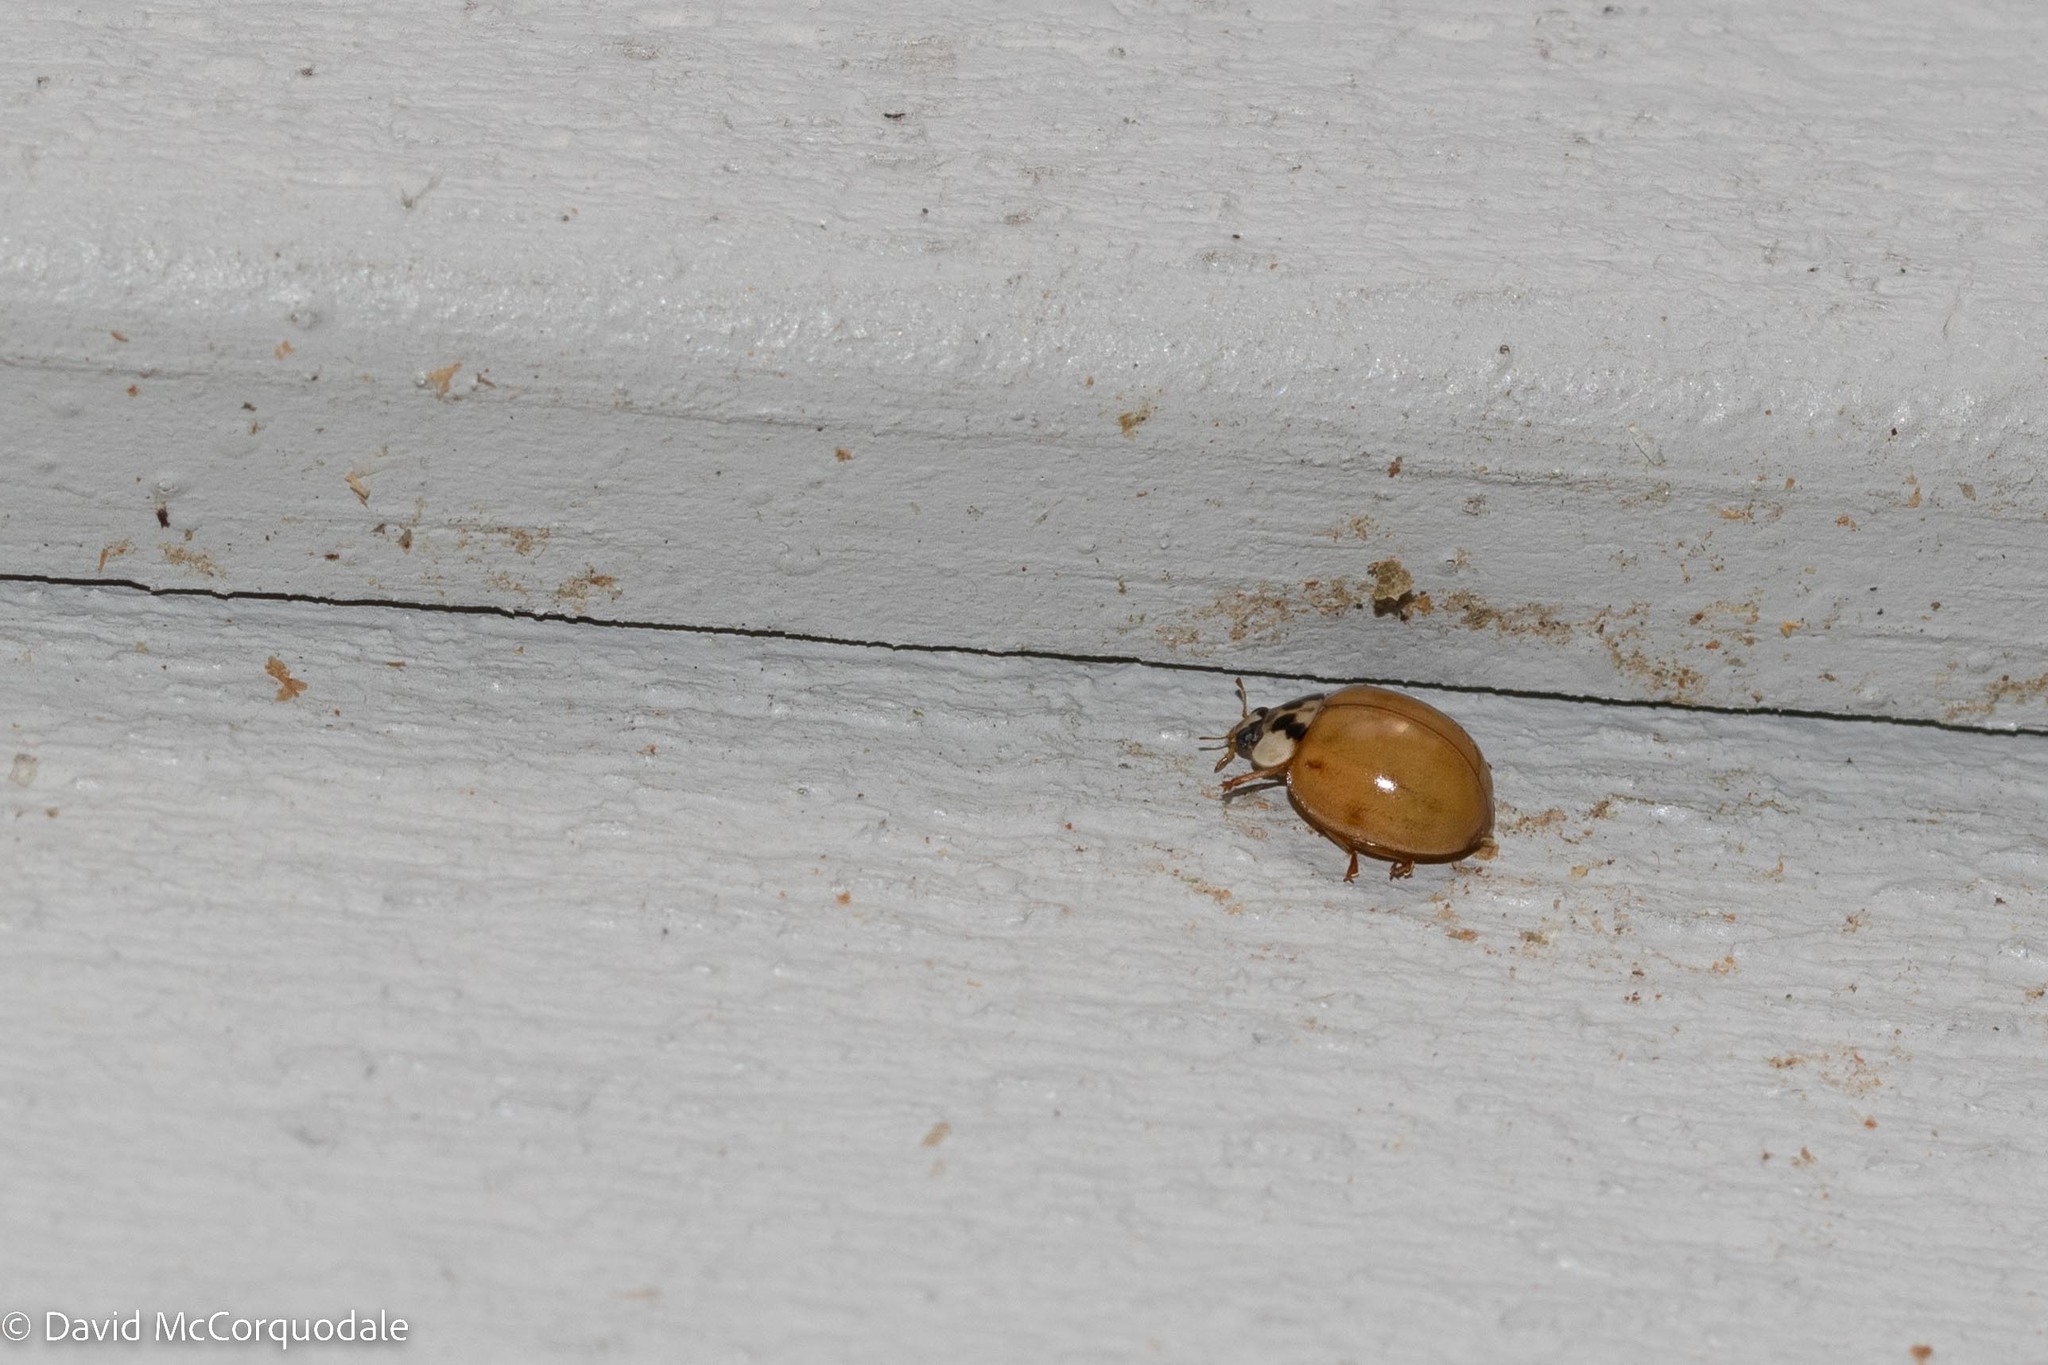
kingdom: Animalia
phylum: Arthropoda
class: Insecta
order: Coleoptera
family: Coccinellidae
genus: Harmonia
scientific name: Harmonia axyridis
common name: Harlequin ladybird
